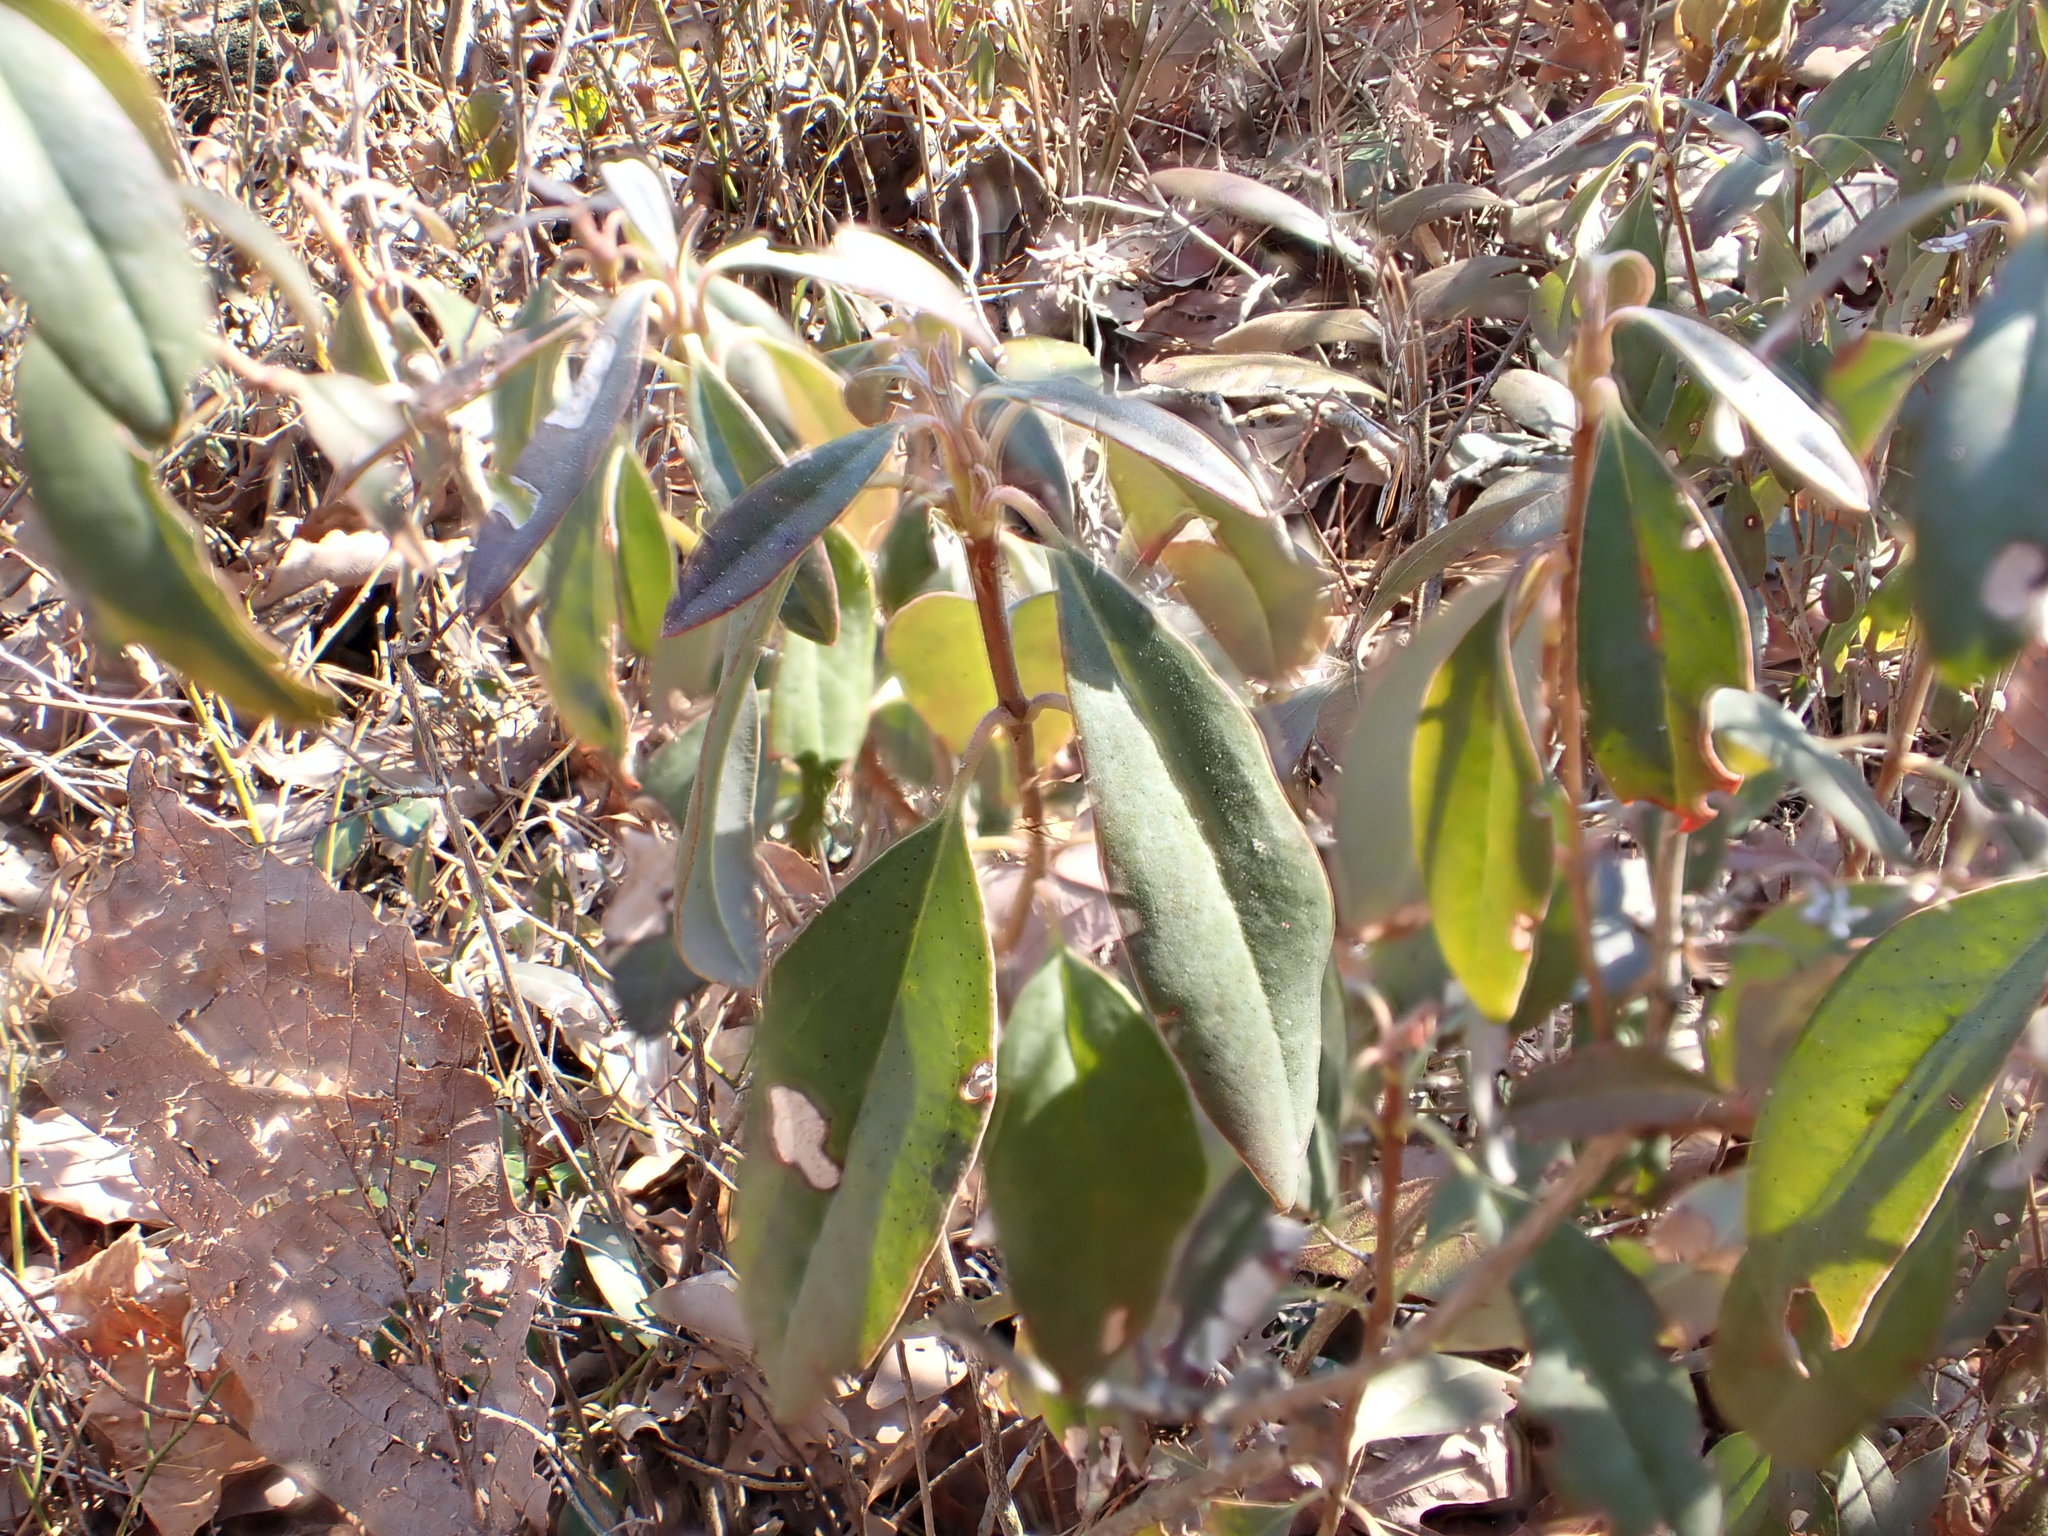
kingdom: Plantae
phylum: Tracheophyta
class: Magnoliopsida
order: Ericales
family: Ericaceae
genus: Kalmia
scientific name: Kalmia angustifolia
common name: Sheep-laurel
